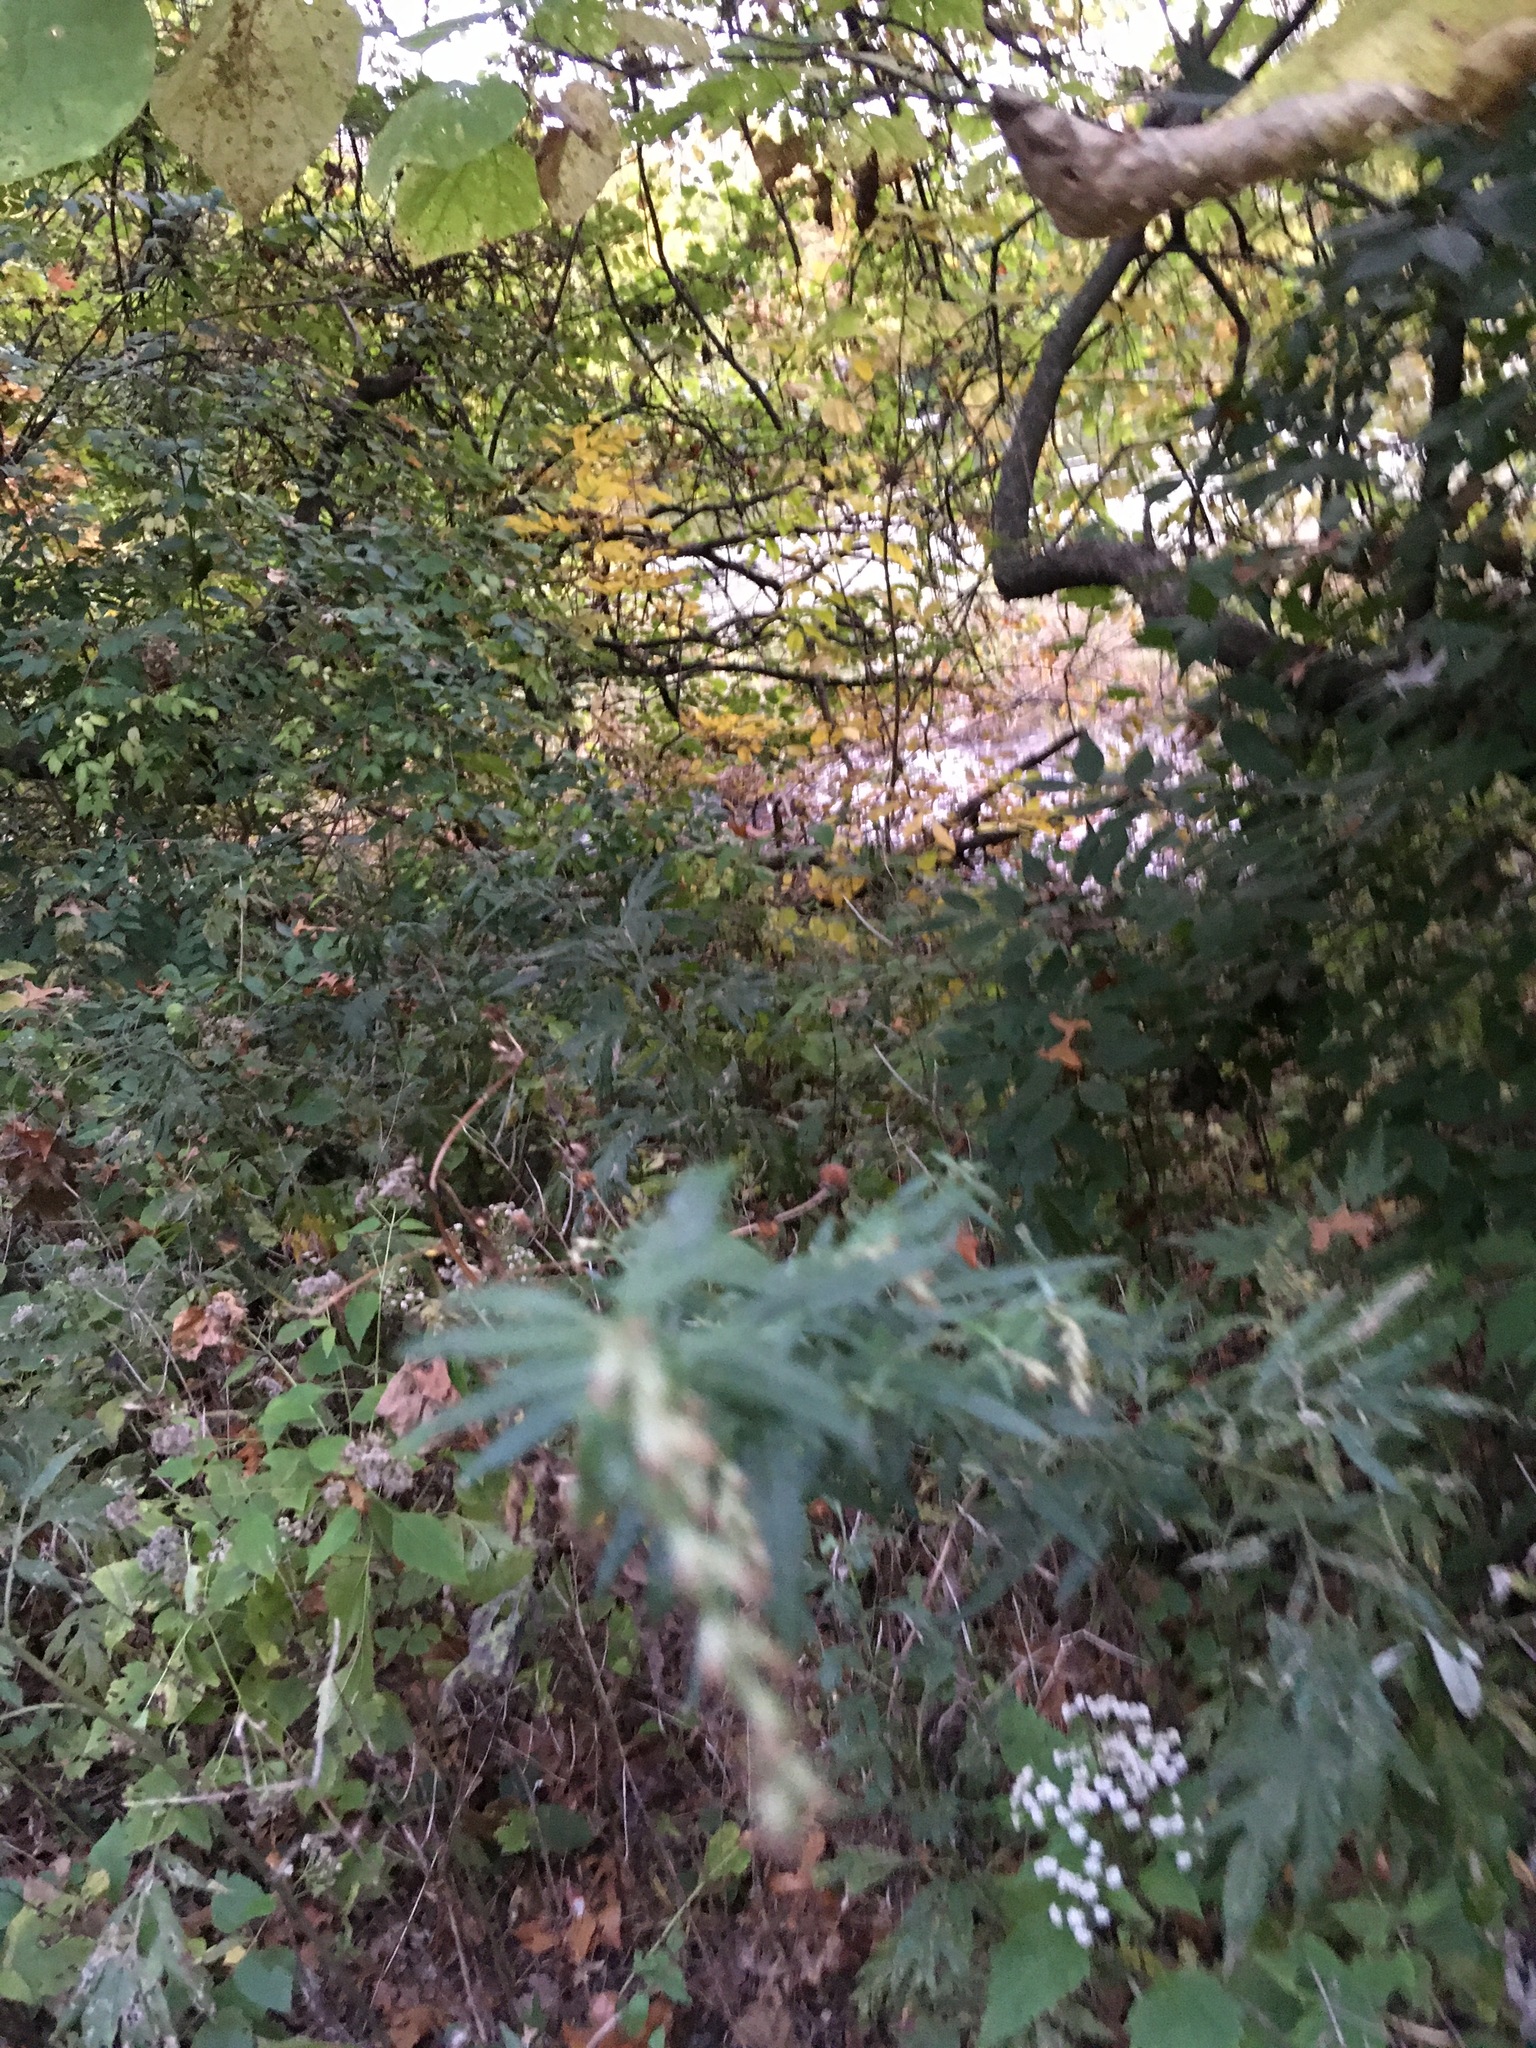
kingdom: Plantae
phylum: Tracheophyta
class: Magnoliopsida
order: Asterales
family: Asteraceae
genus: Artemisia
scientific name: Artemisia vulgaris
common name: Mugwort
